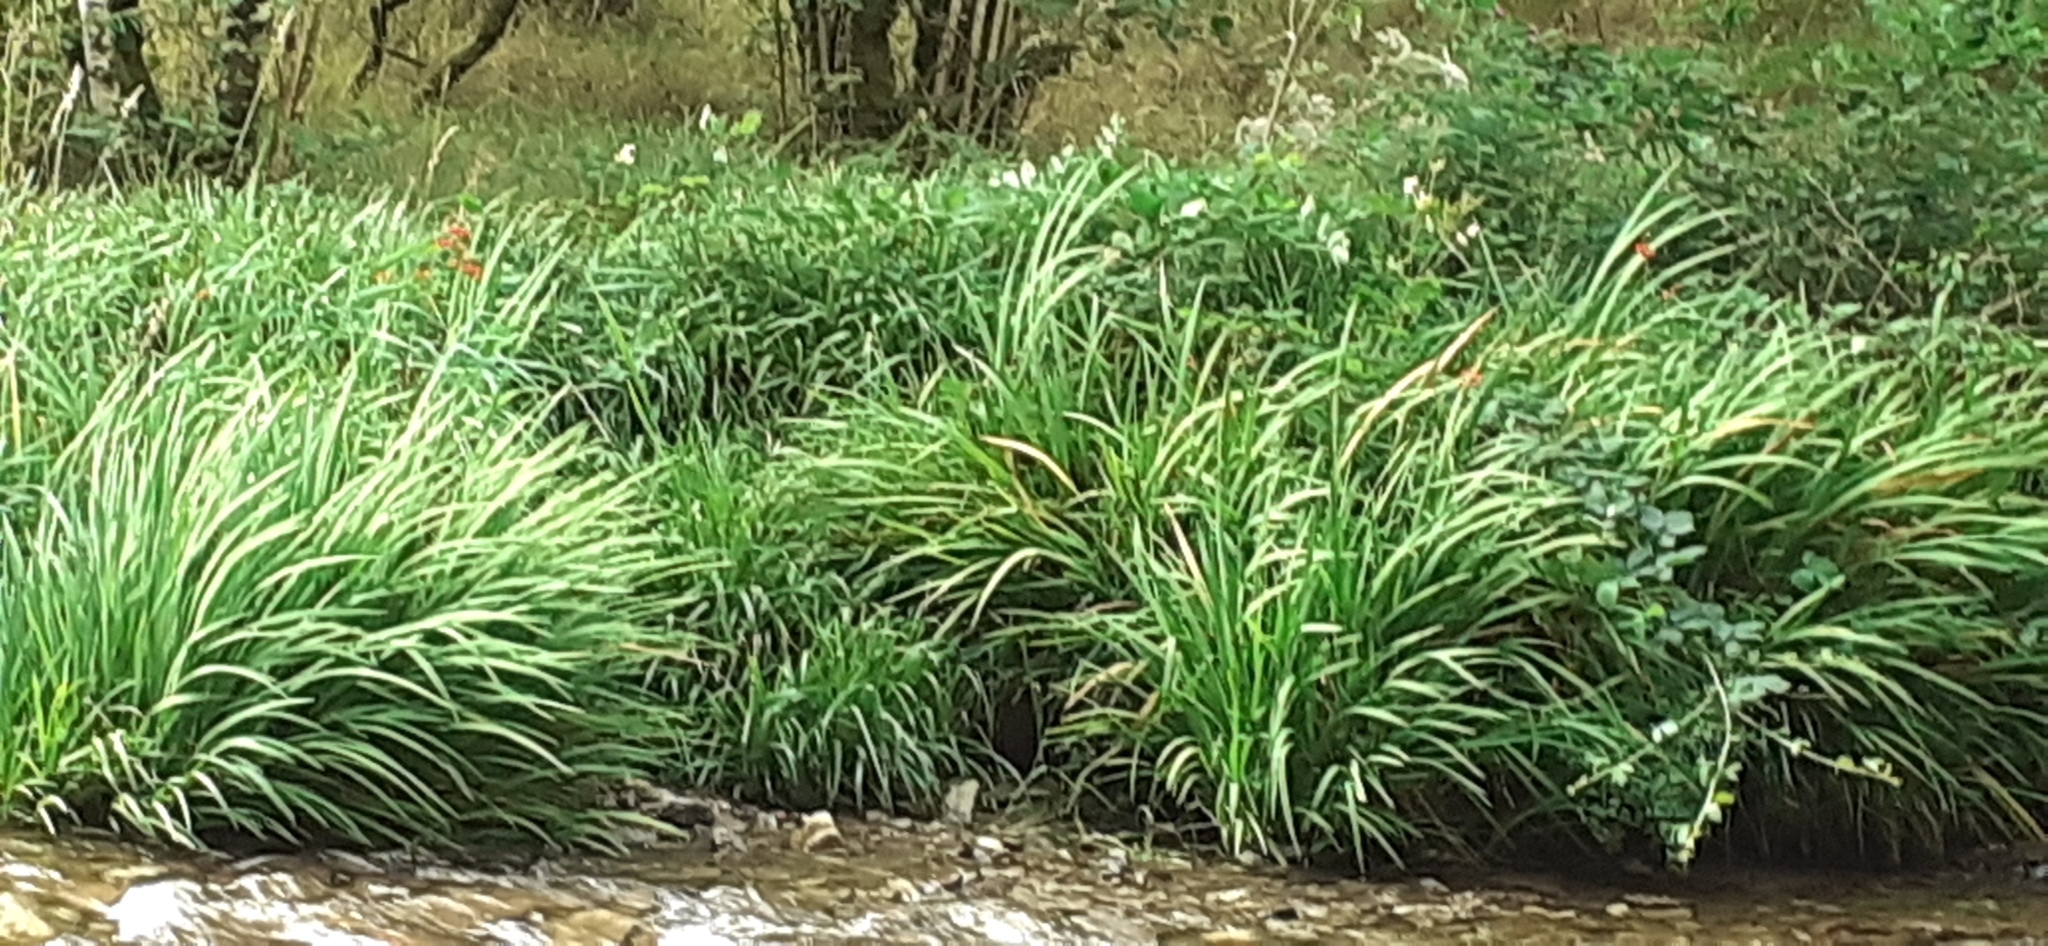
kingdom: Plantae
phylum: Tracheophyta
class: Liliopsida
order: Asparagales
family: Iridaceae
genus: Crocosmia
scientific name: Crocosmia crocosmiiflora
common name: Montbretia
